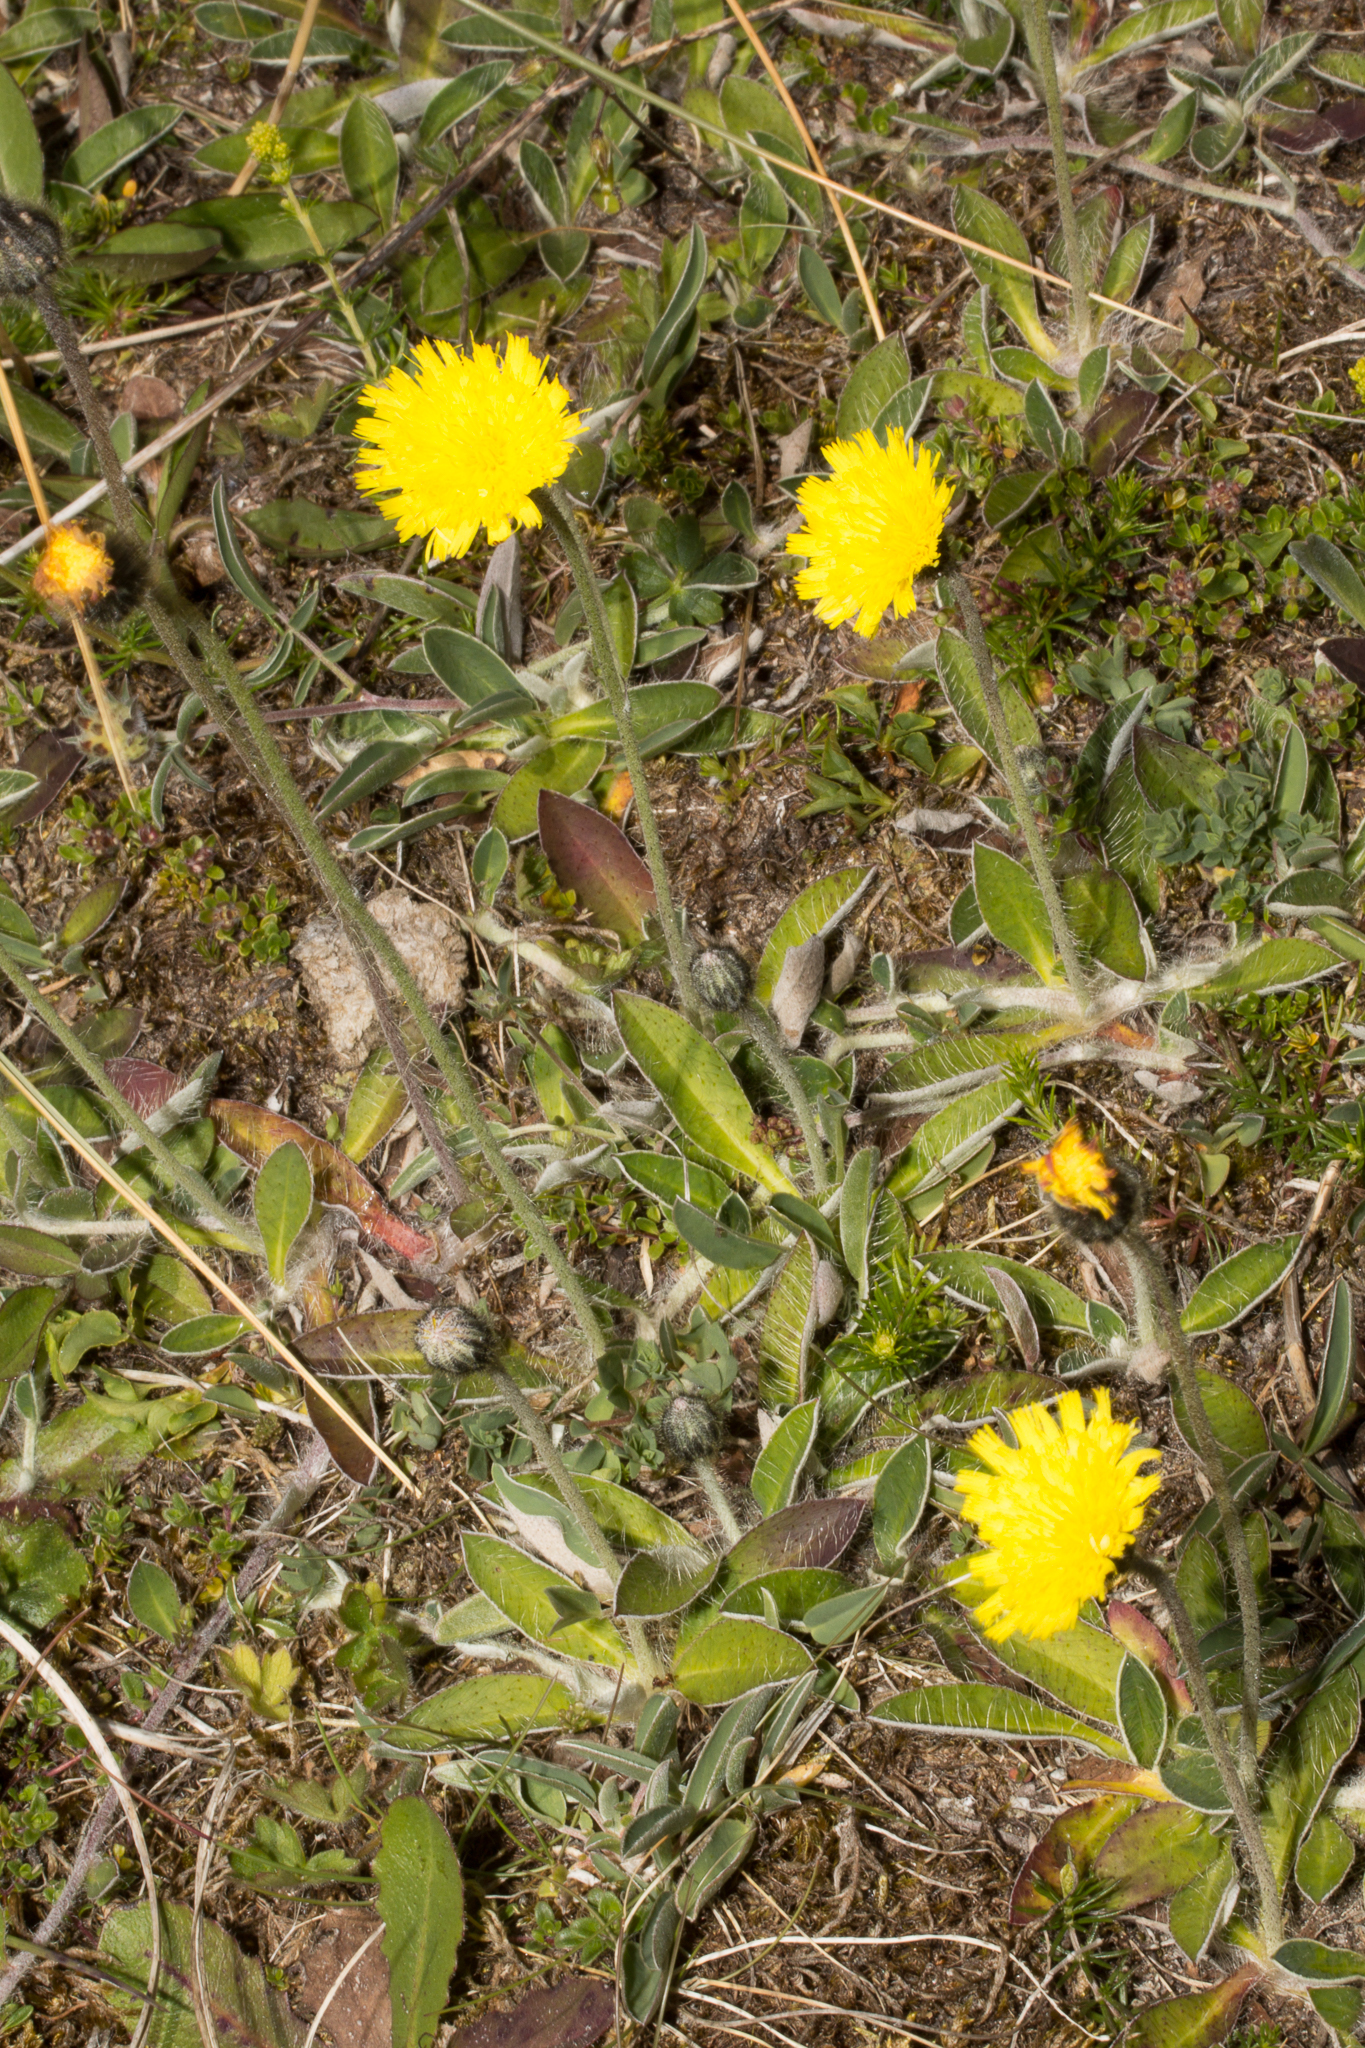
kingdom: Plantae
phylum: Tracheophyta
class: Magnoliopsida
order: Asterales
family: Asteraceae
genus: Pilosella
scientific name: Pilosella officinarum
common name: Mouse-ear hawkweed
